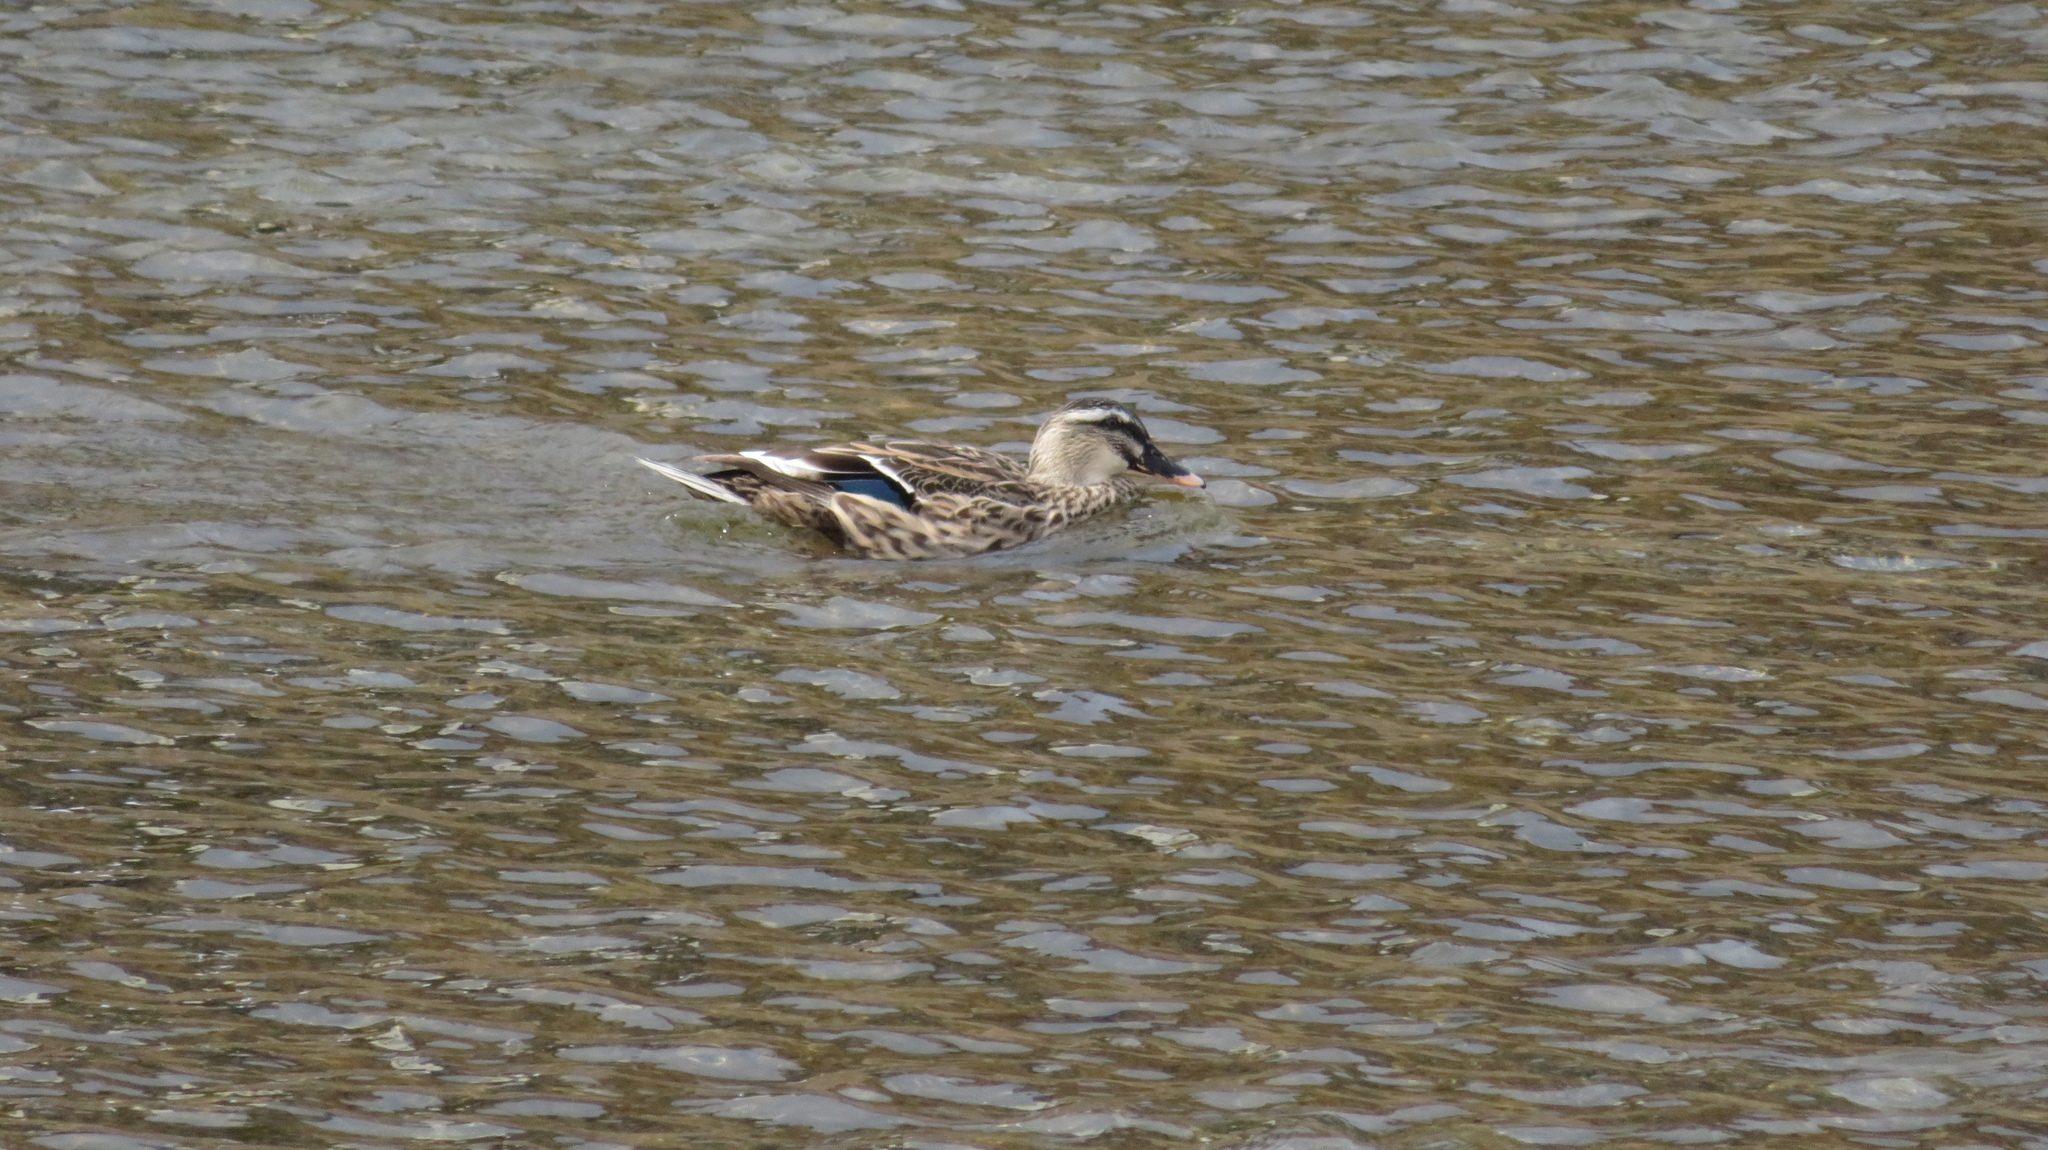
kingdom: Animalia
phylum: Chordata
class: Aves
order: Anseriformes
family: Anatidae
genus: Anas
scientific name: Anas zonorhyncha
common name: Eastern spot-billed duck
